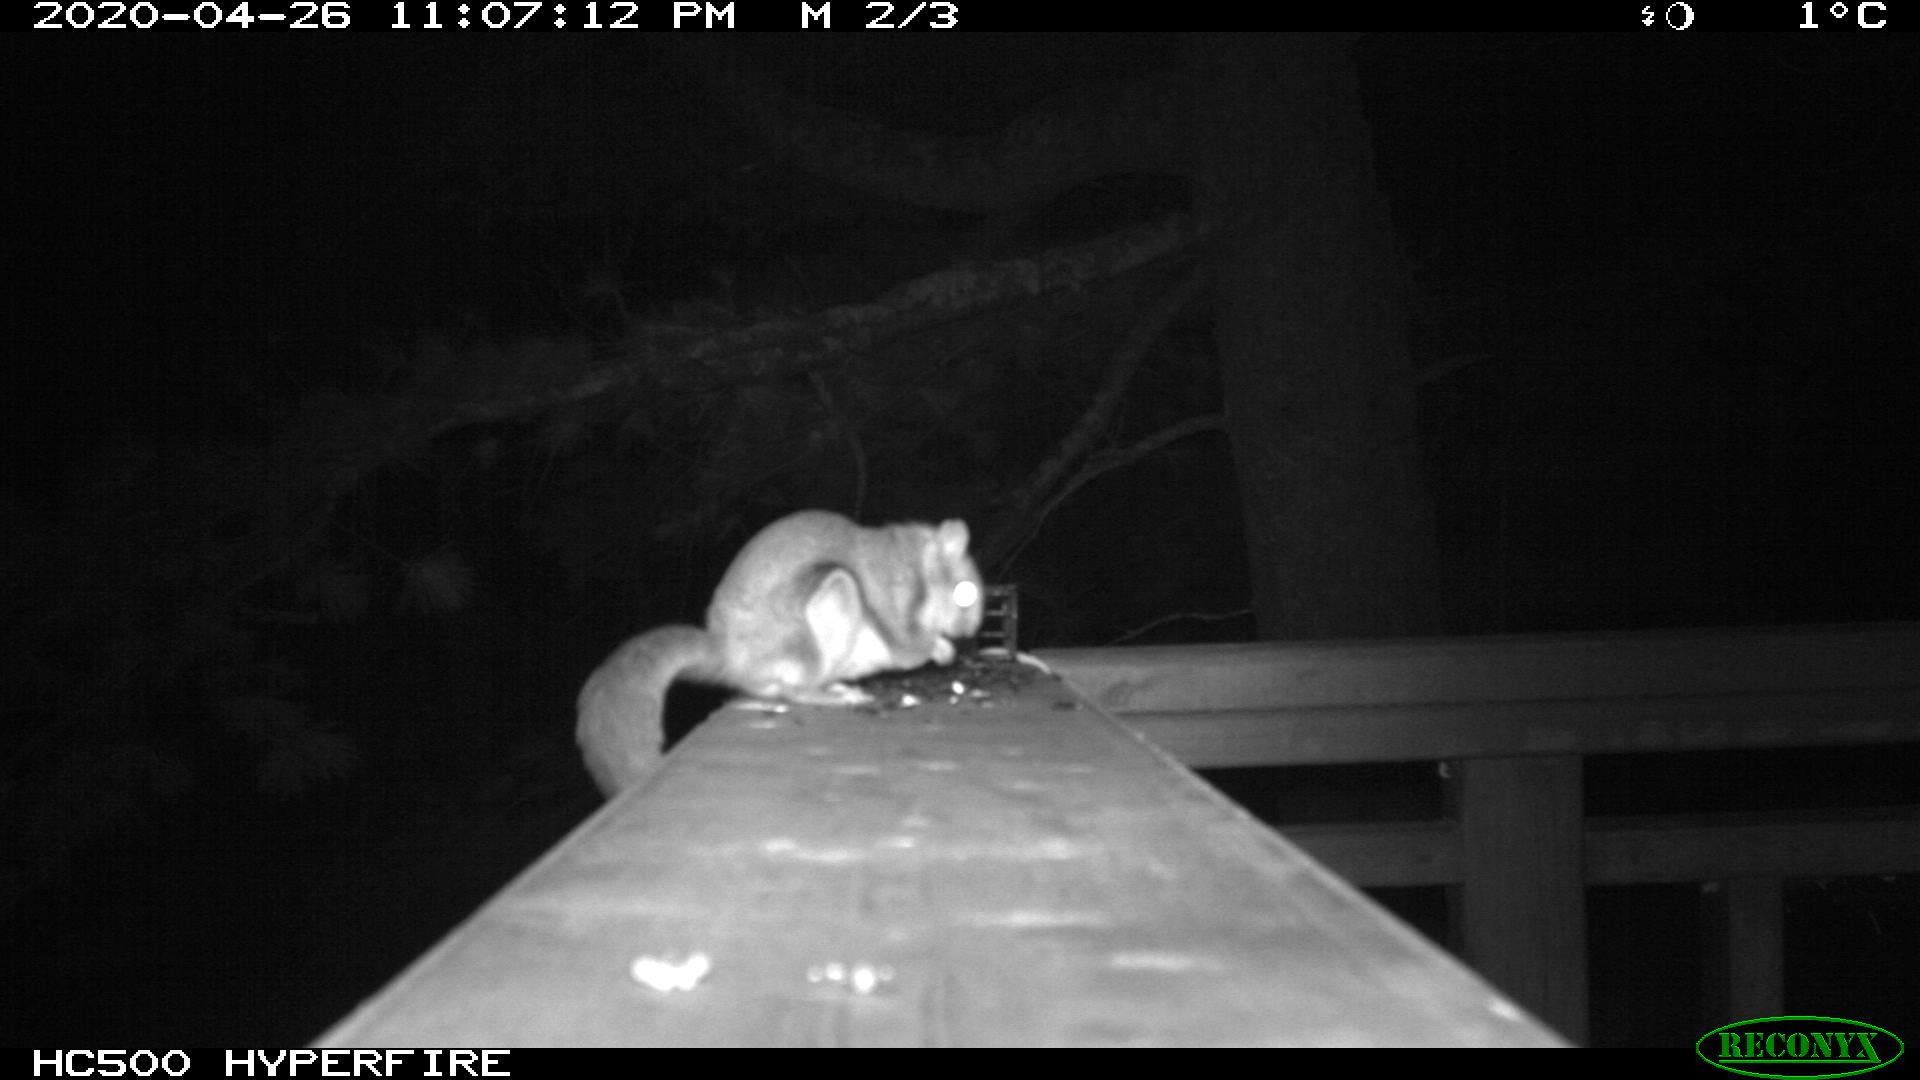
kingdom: Animalia
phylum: Chordata
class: Mammalia
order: Rodentia
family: Sciuridae
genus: Glaucomys
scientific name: Glaucomys sabrinus
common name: Northern flying squirrel
